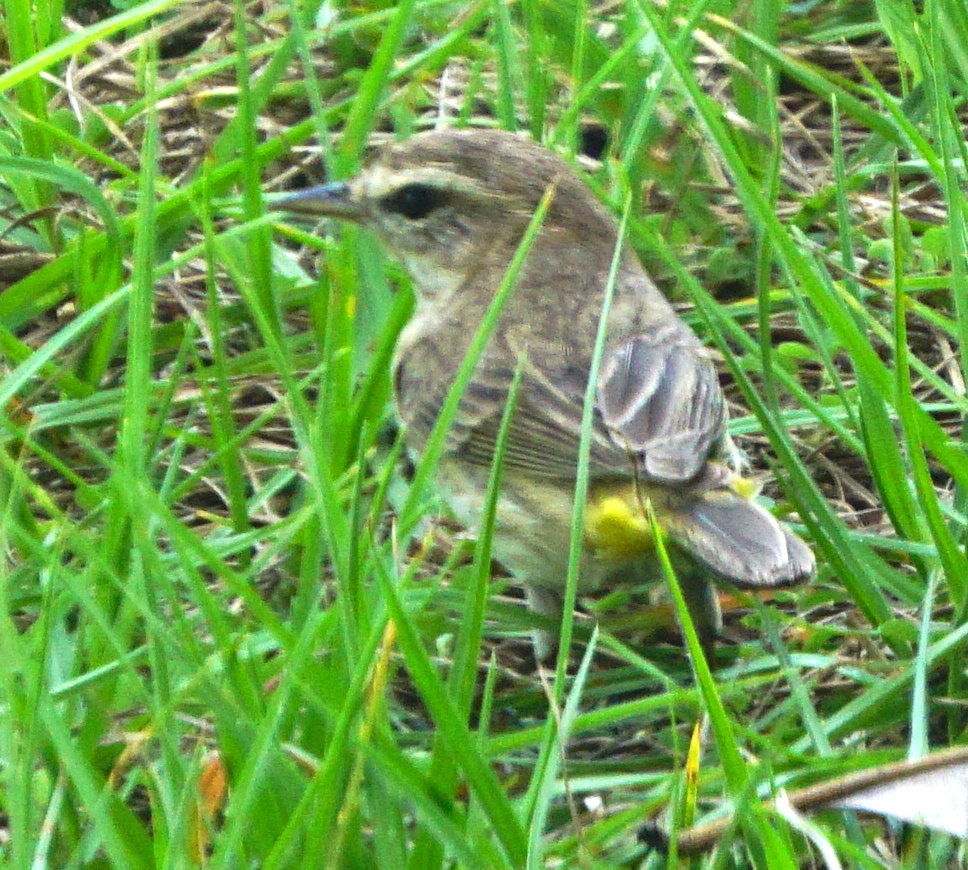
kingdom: Animalia
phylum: Chordata
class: Aves
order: Passeriformes
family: Parulidae
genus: Setophaga
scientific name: Setophaga palmarum
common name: Palm warbler
